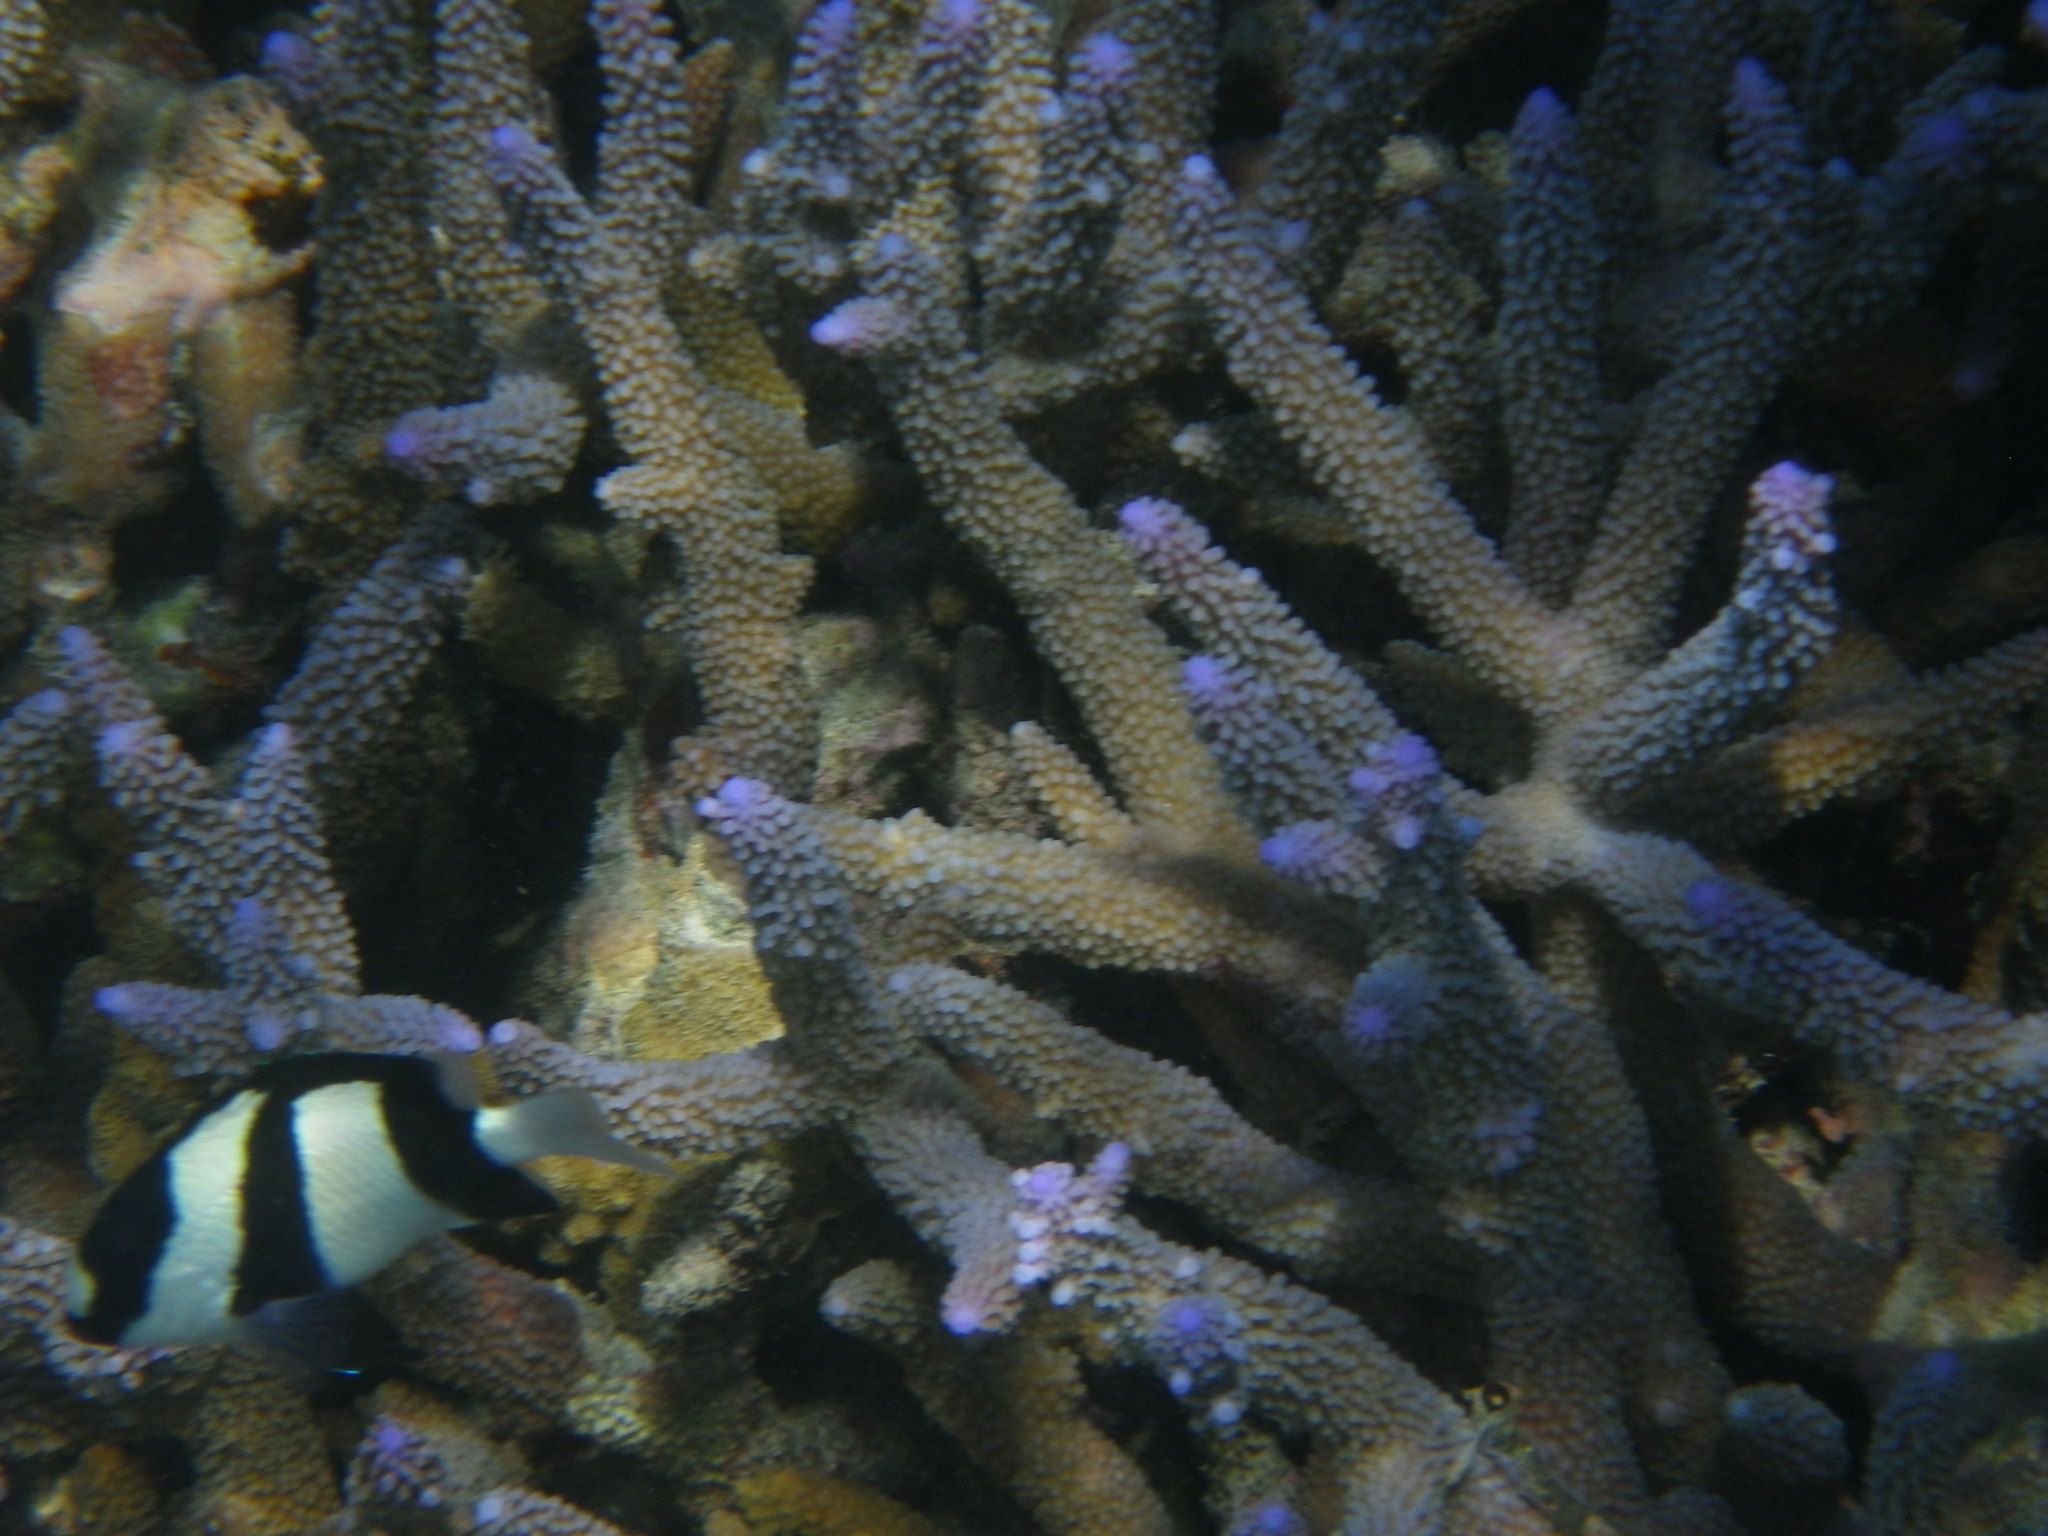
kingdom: Animalia
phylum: Chordata
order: Perciformes
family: Pomacentridae
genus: Dascyllus
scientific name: Dascyllus aruanus
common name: Humbug dascyllus
